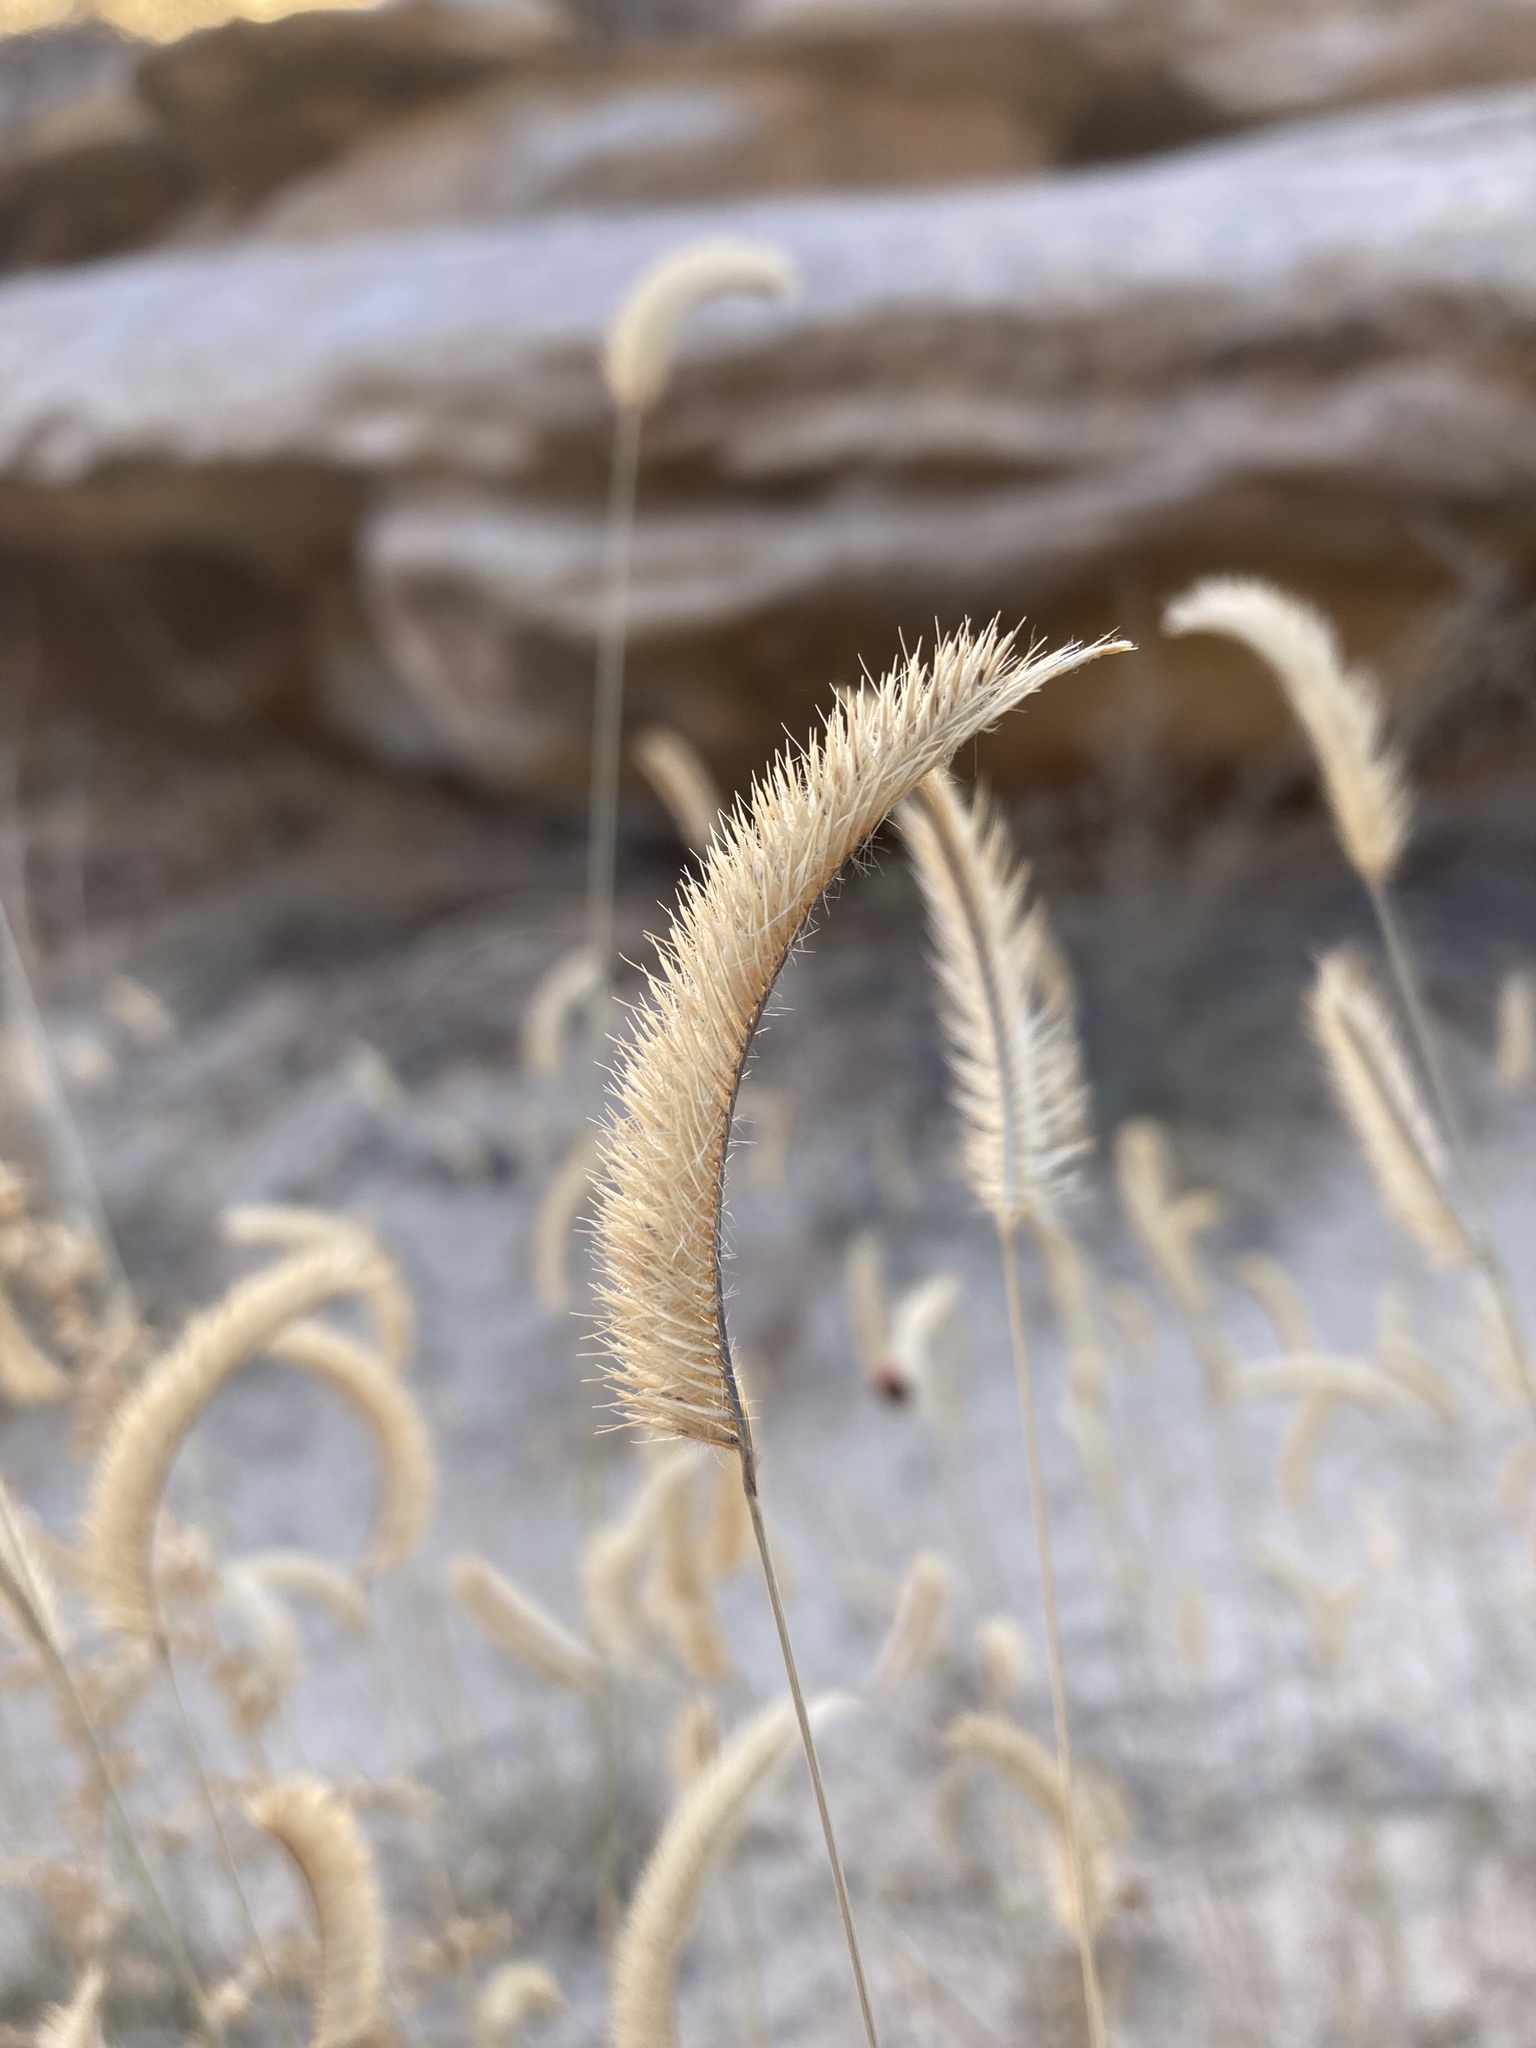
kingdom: Plantae
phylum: Tracheophyta
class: Liliopsida
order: Poales
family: Poaceae
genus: Bouteloua
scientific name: Bouteloua gracilis
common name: Blue grama
